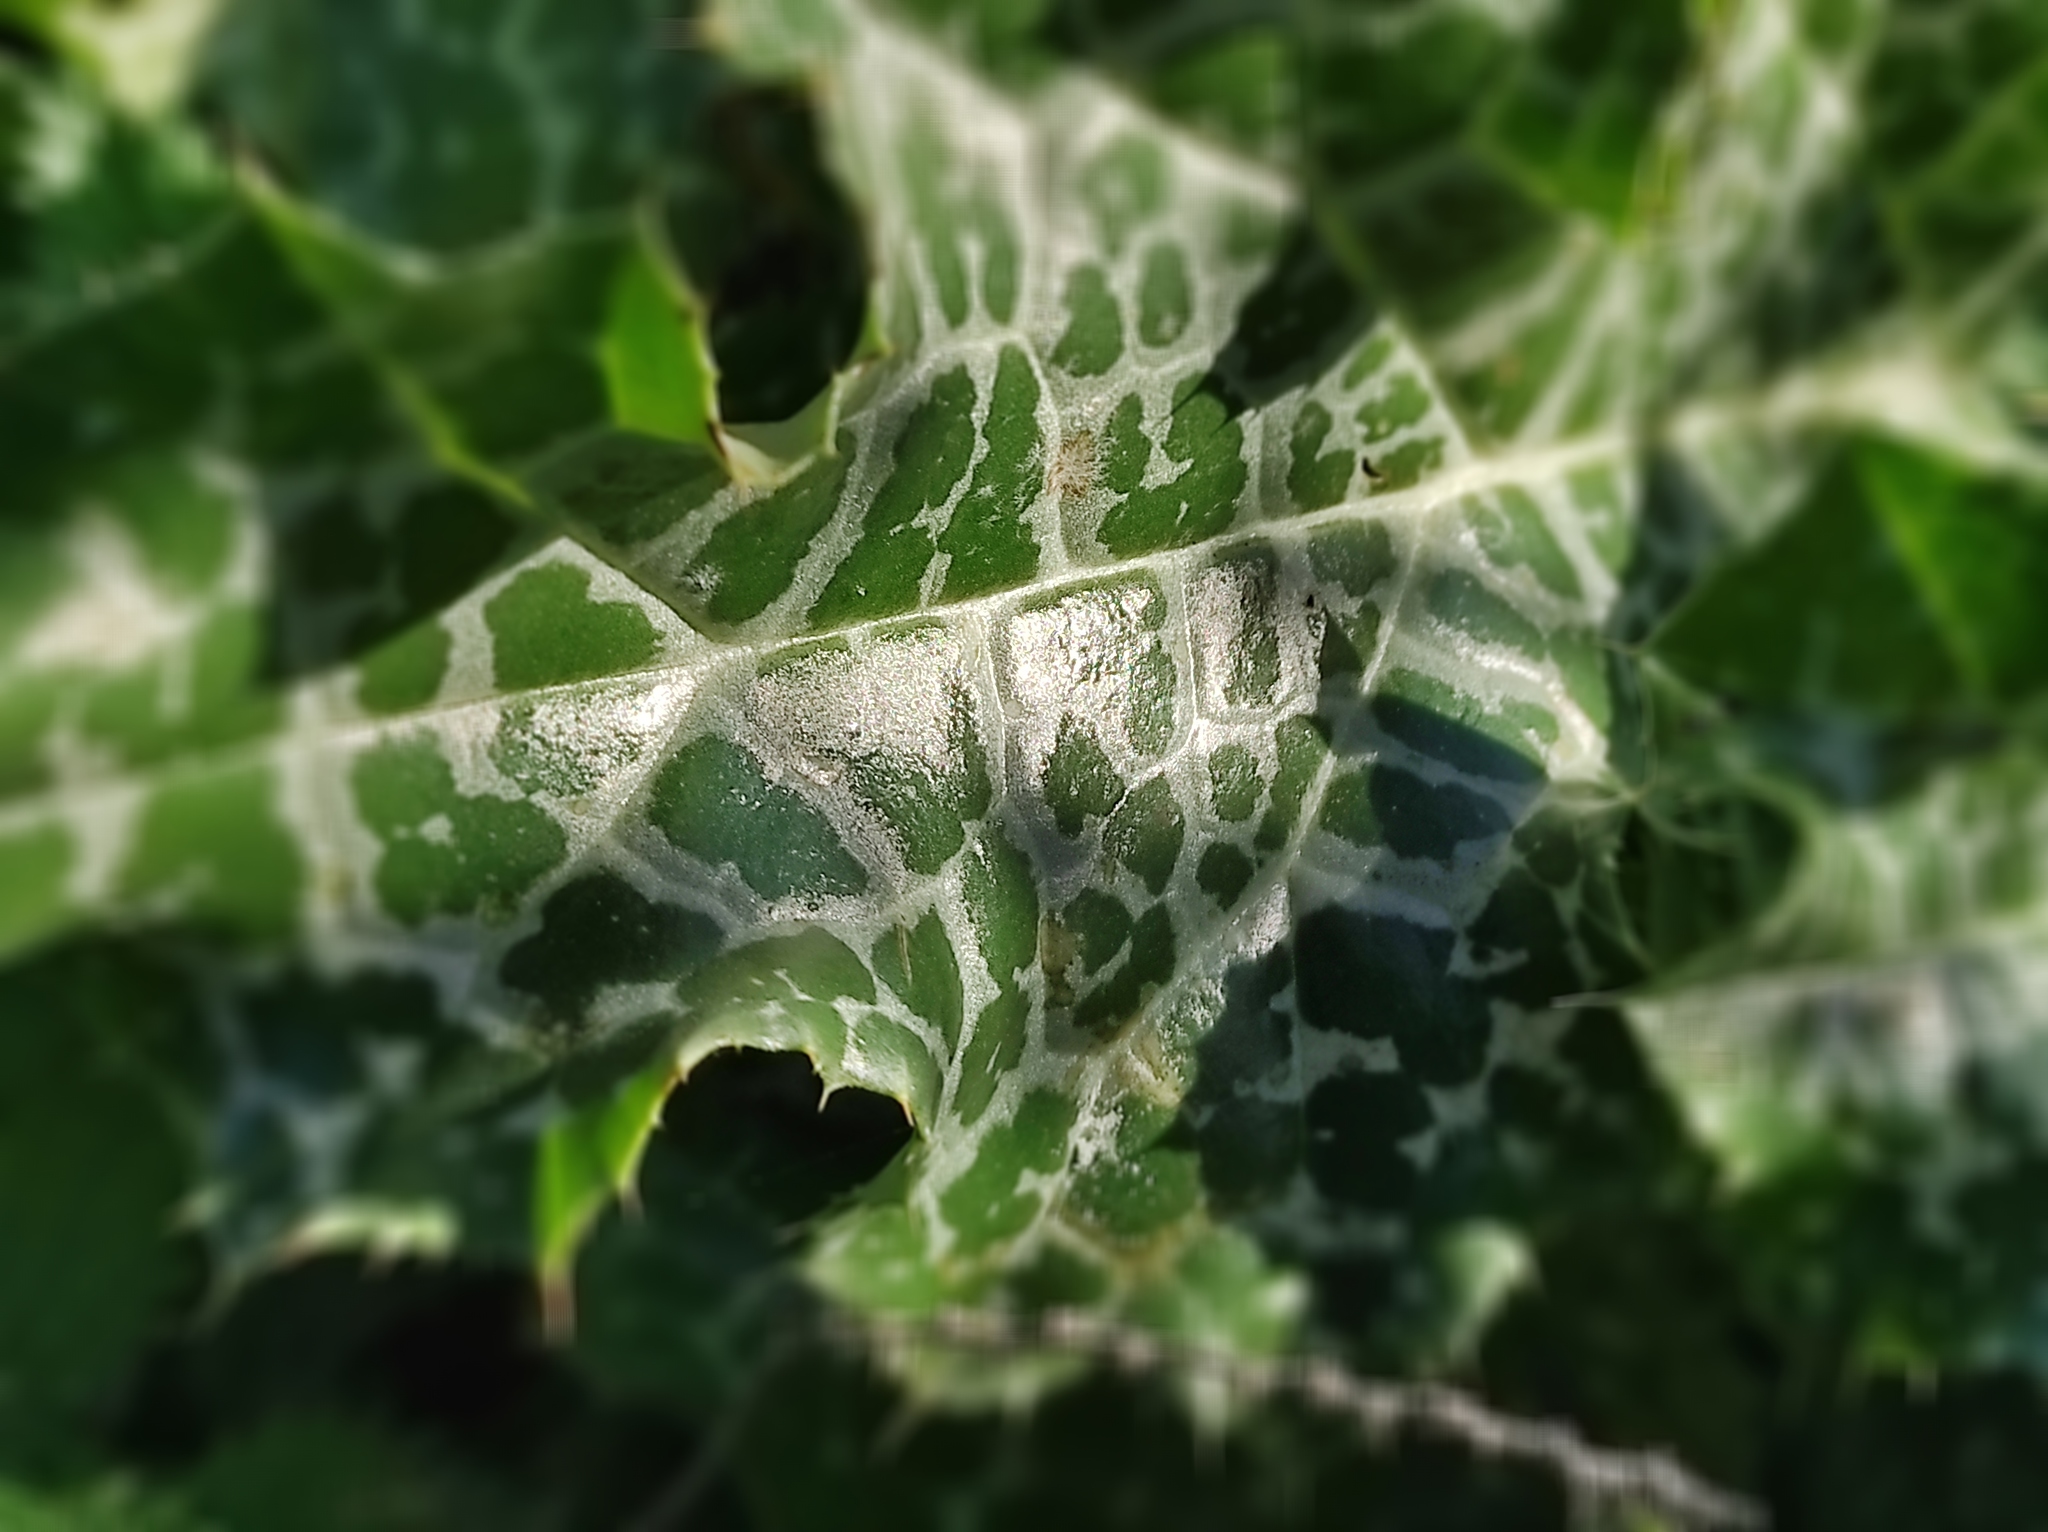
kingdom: Plantae
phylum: Tracheophyta
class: Magnoliopsida
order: Asterales
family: Asteraceae
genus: Silybum
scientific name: Silybum marianum
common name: Milk thistle
